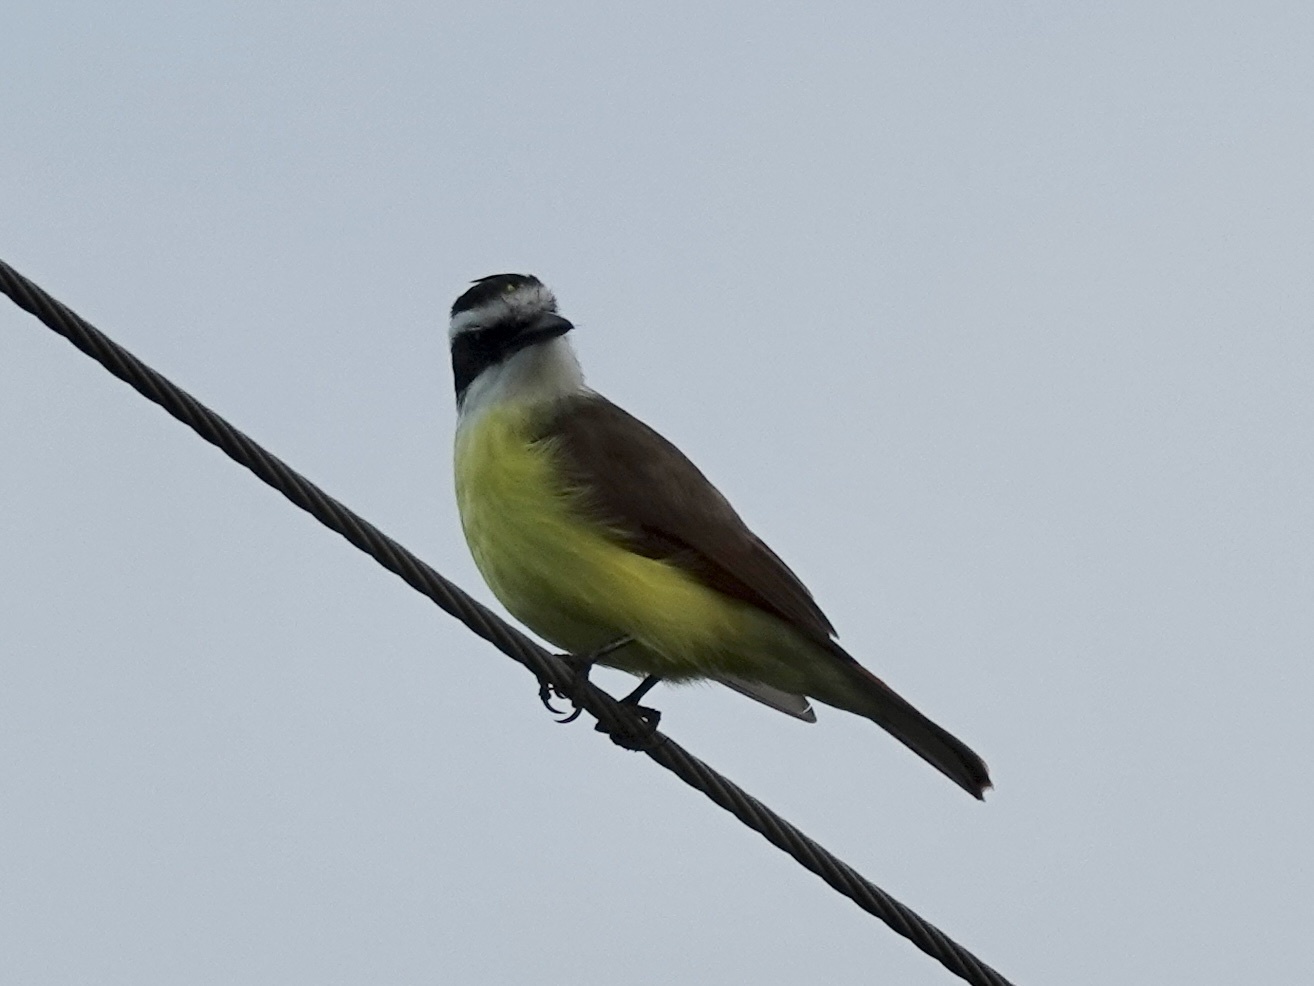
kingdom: Animalia
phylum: Chordata
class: Aves
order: Passeriformes
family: Tyrannidae
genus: Pitangus
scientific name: Pitangus sulphuratus
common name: Great kiskadee
